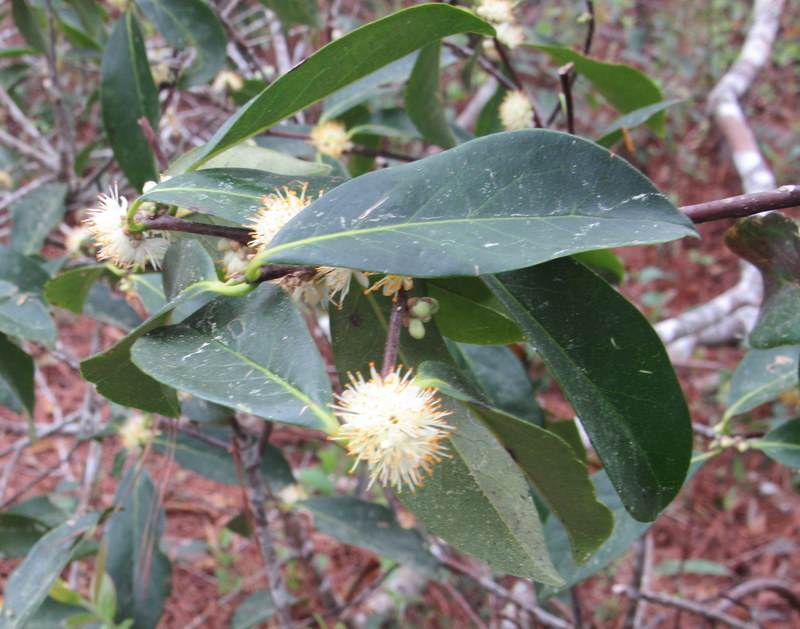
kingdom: Plantae
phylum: Tracheophyta
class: Magnoliopsida
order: Ericales
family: Symplocaceae
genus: Symplocos
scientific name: Symplocos tinctoria
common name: Horse-sugar
